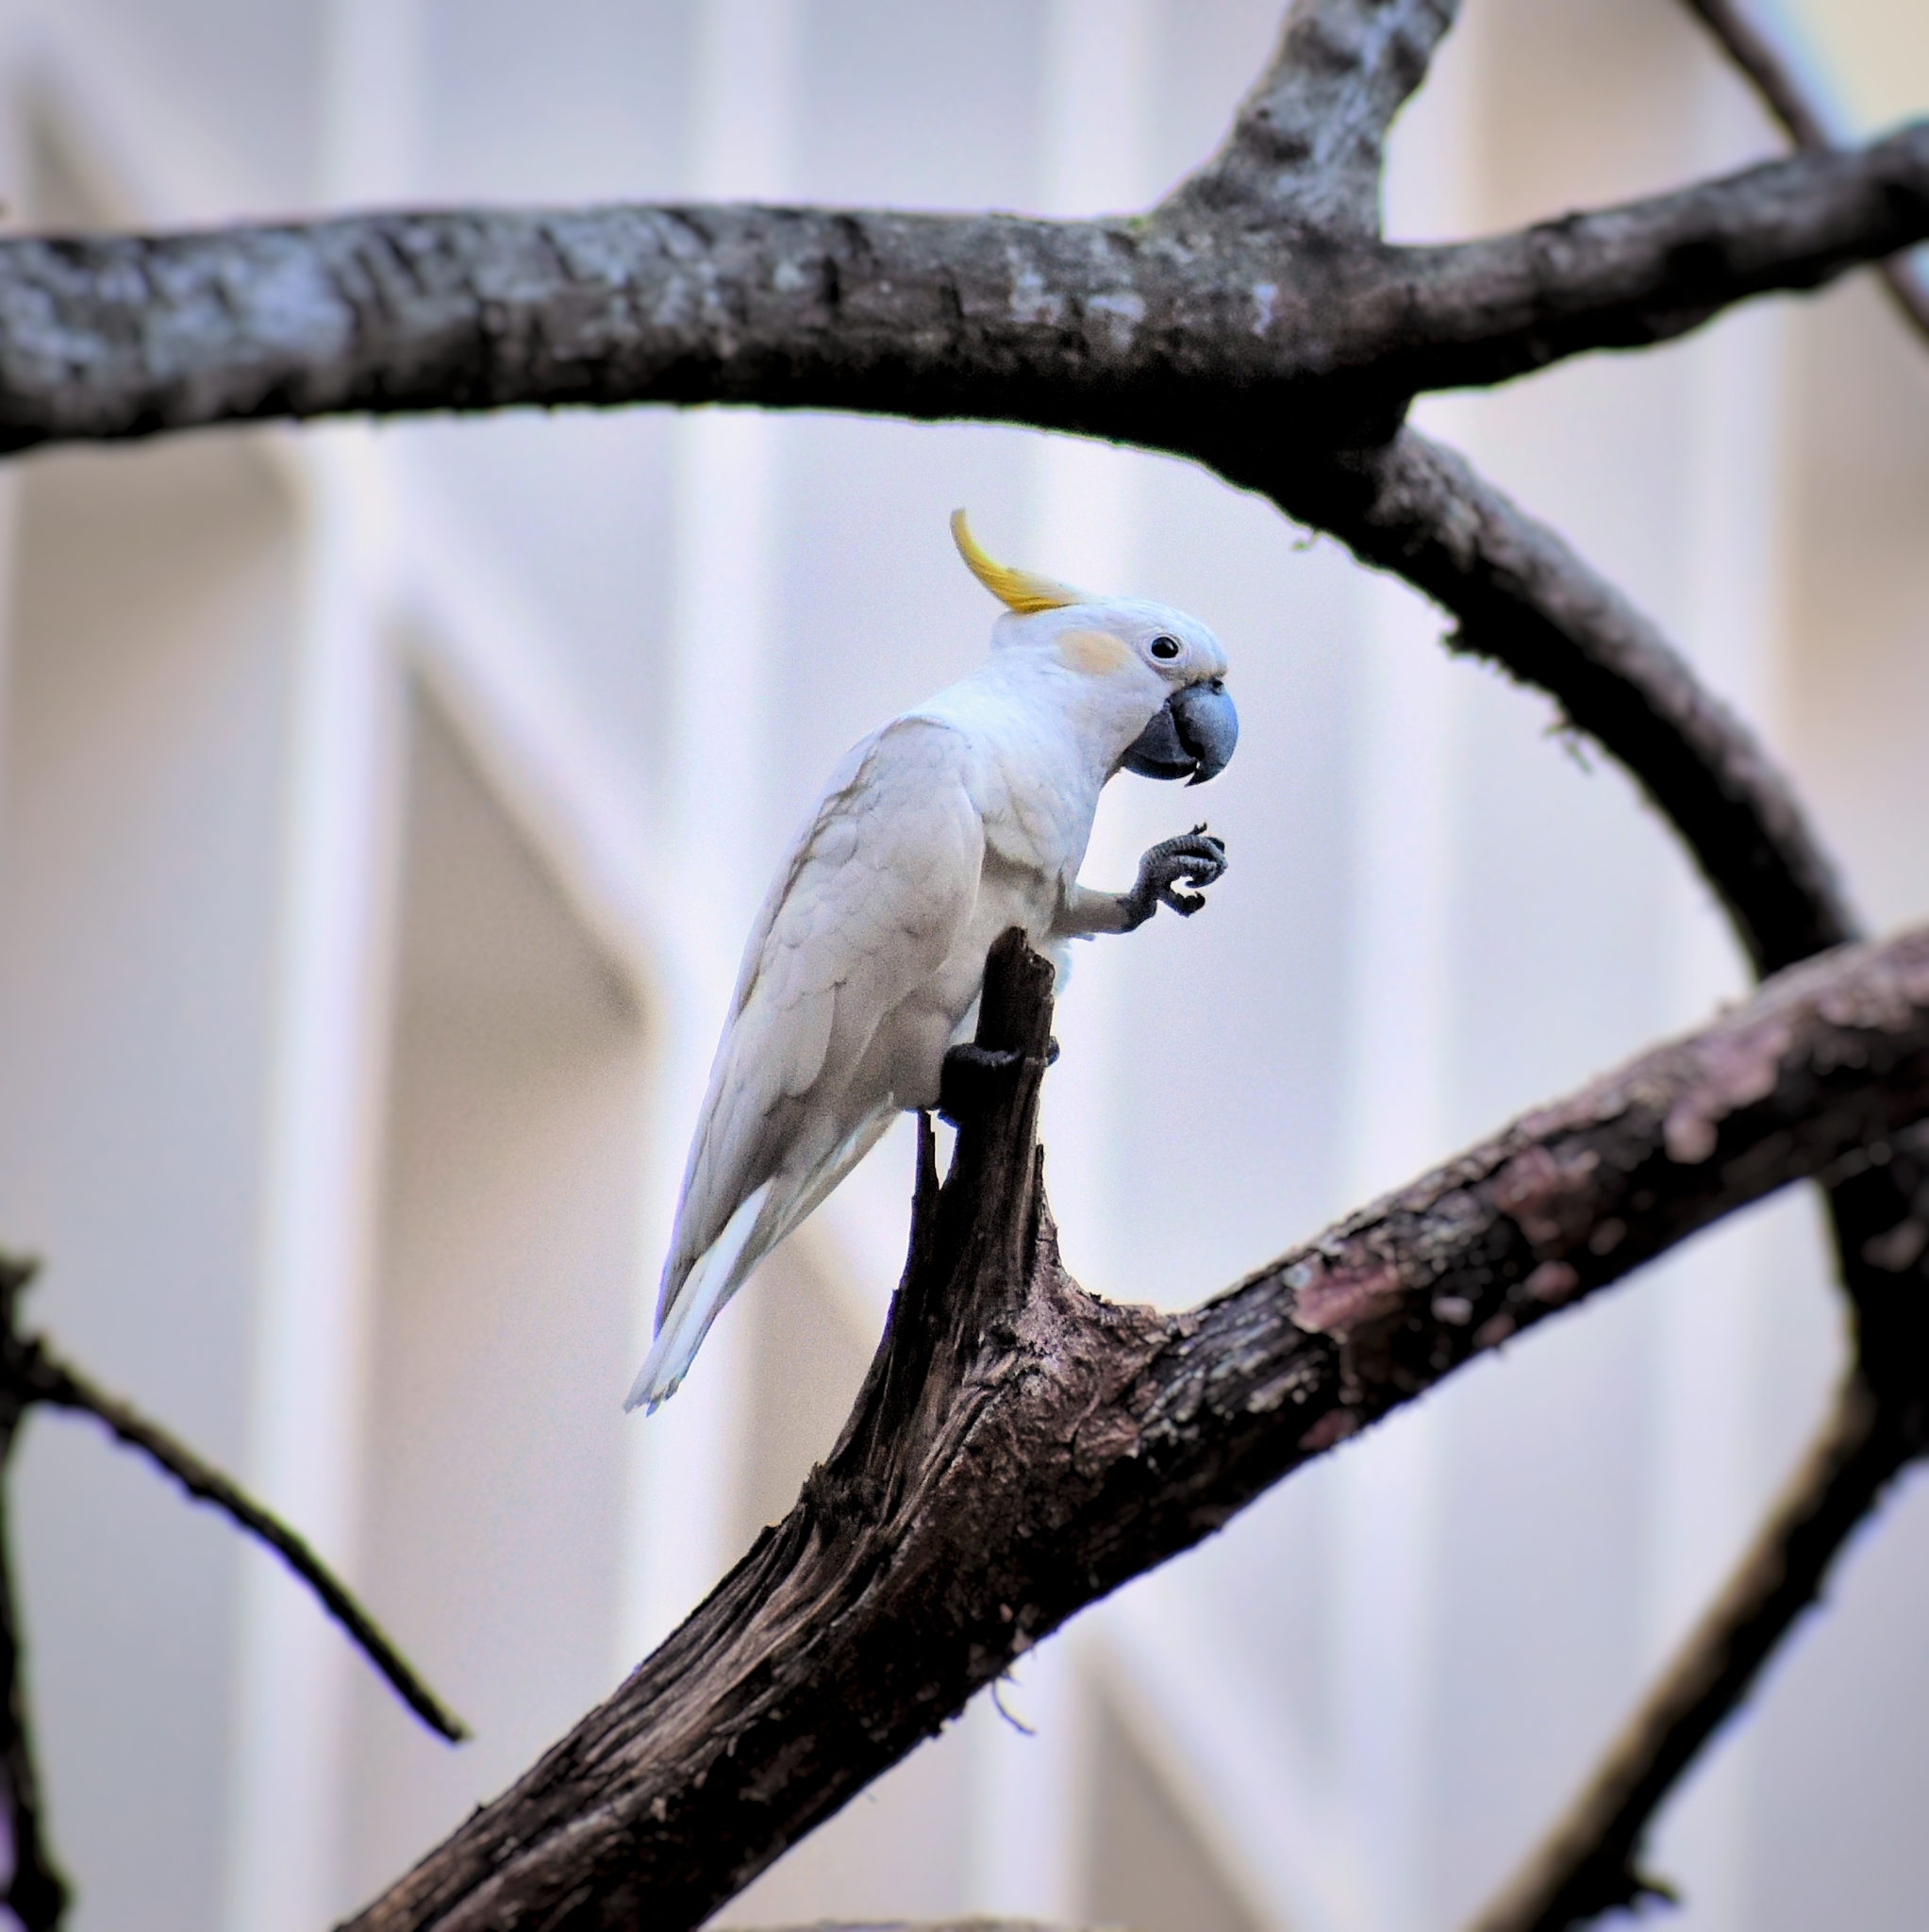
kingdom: Animalia
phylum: Chordata
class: Aves
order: Psittaciformes
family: Psittacidae
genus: Cacatua
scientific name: Cacatua sulphurea
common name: Yellow-crested cockatoo
